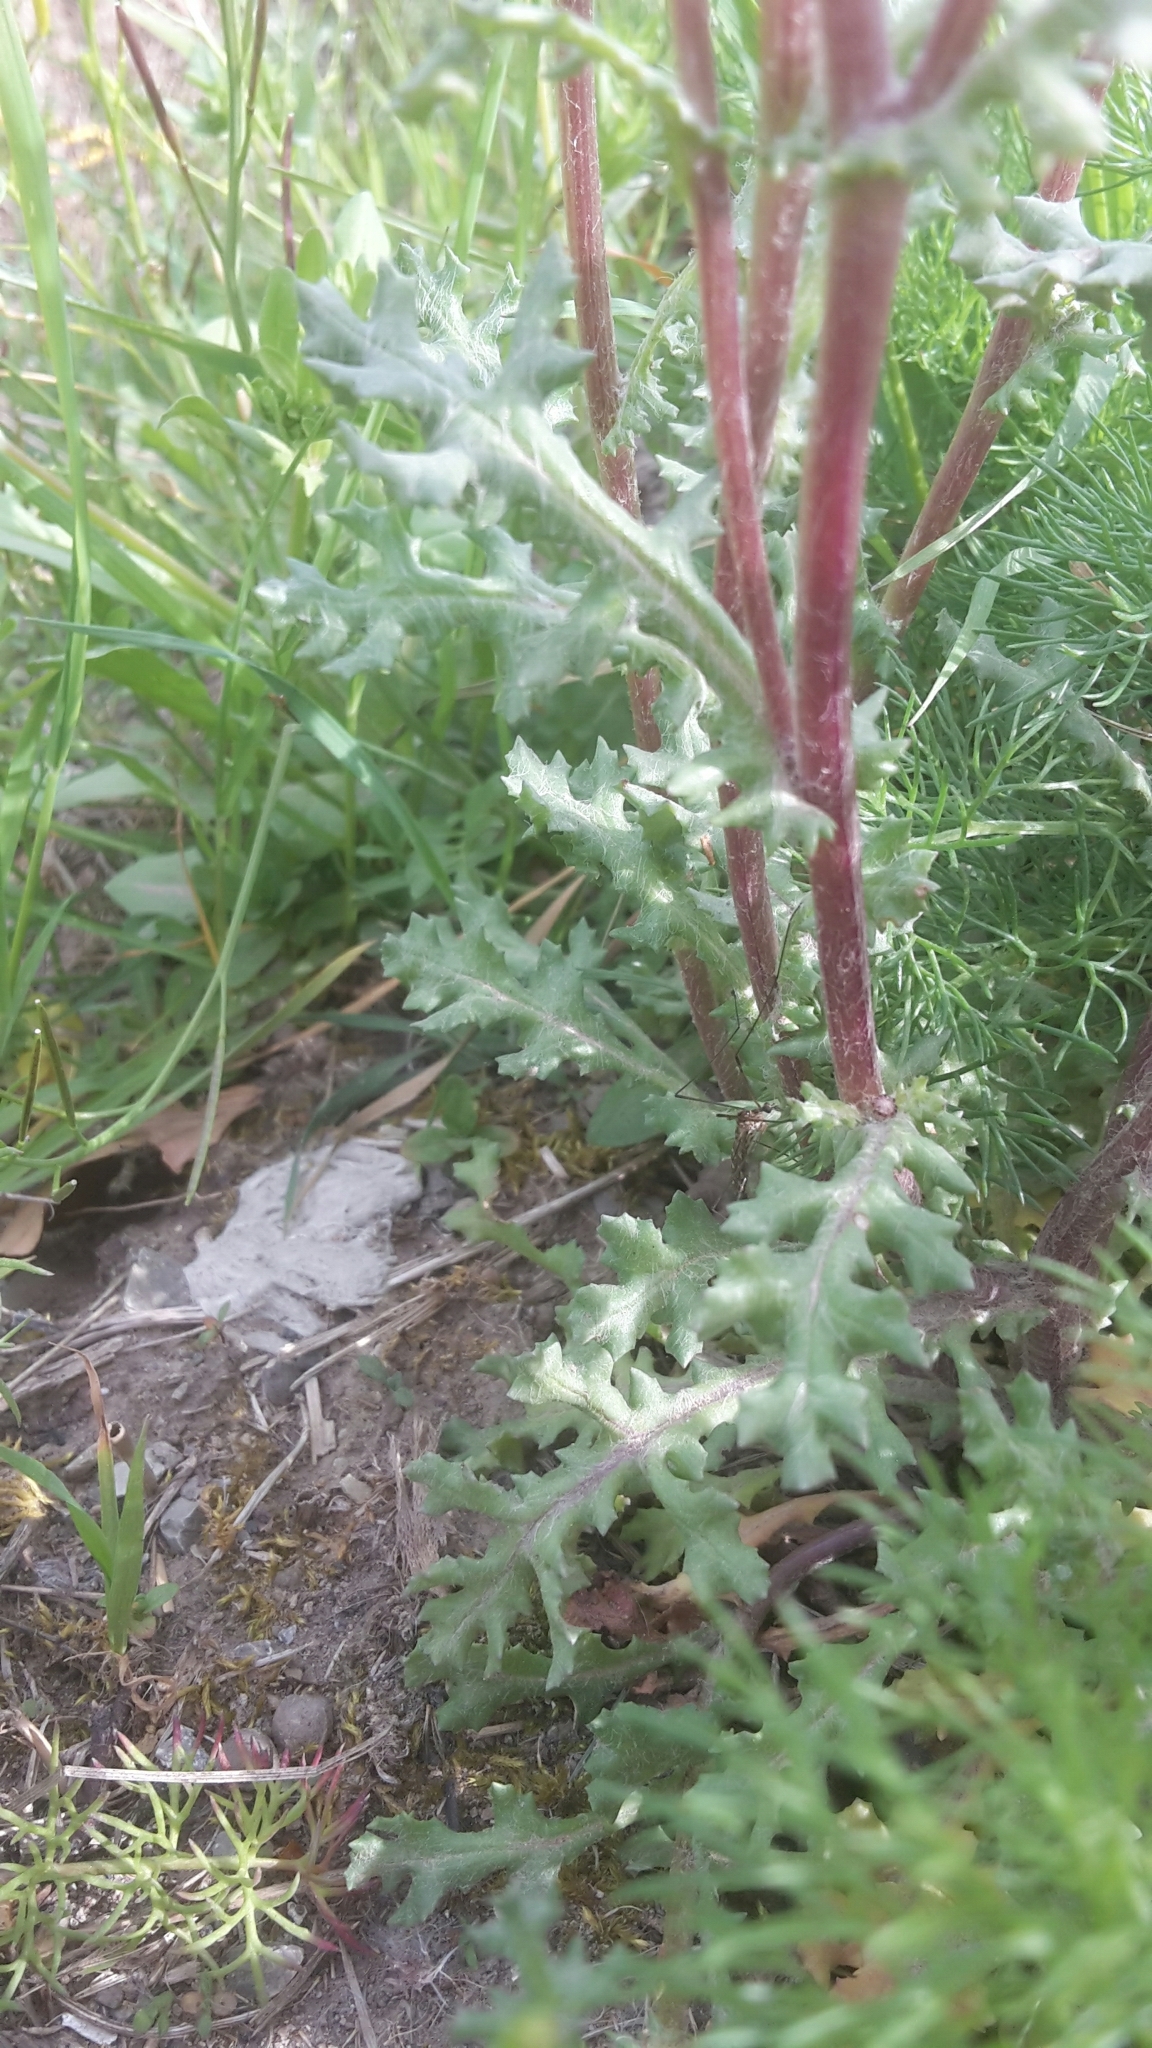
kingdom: Plantae
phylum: Tracheophyta
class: Magnoliopsida
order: Asterales
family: Asteraceae
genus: Senecio
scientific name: Senecio vulgaris
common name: Old-man-in-the-spring
